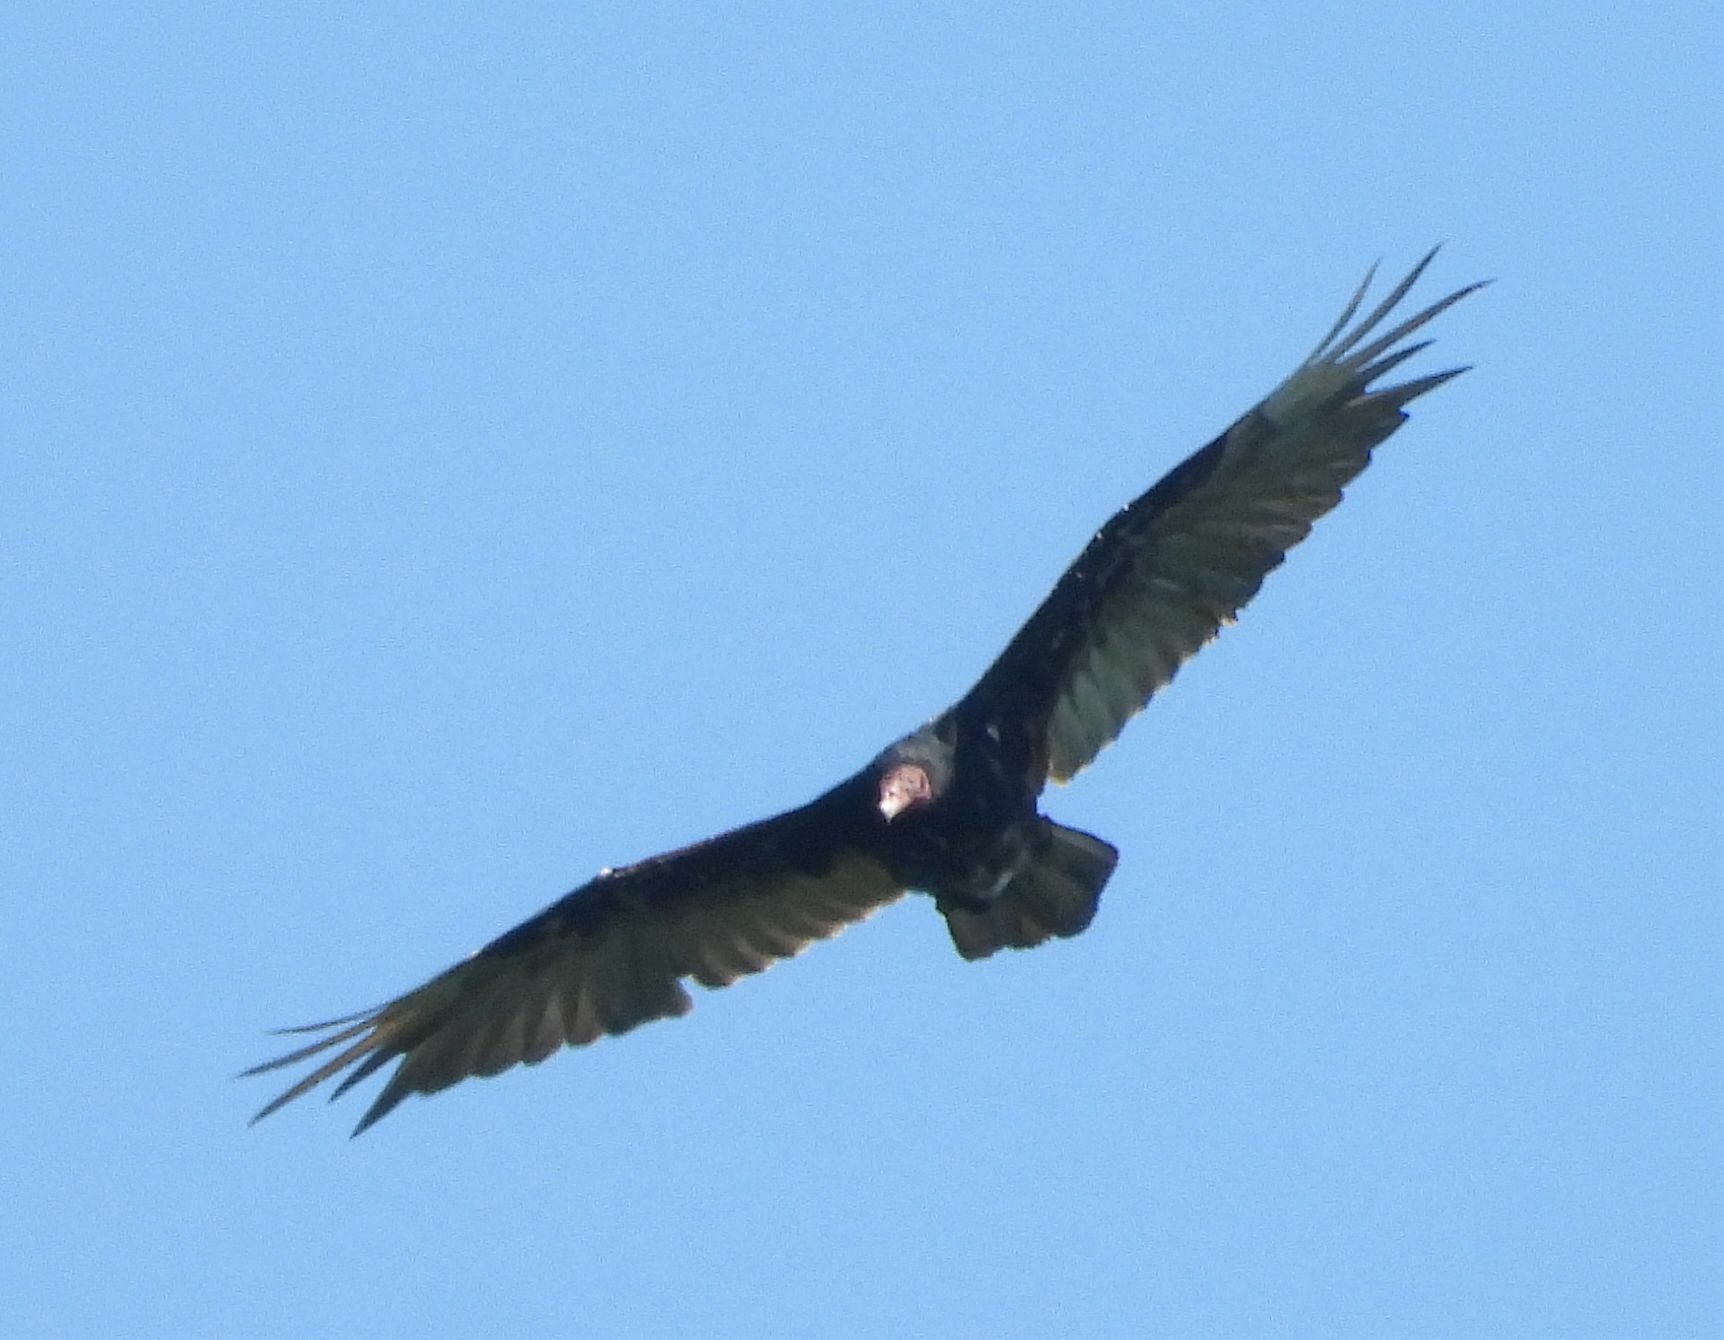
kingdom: Animalia
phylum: Chordata
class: Aves
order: Accipitriformes
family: Cathartidae
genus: Cathartes
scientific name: Cathartes aura
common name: Turkey vulture
